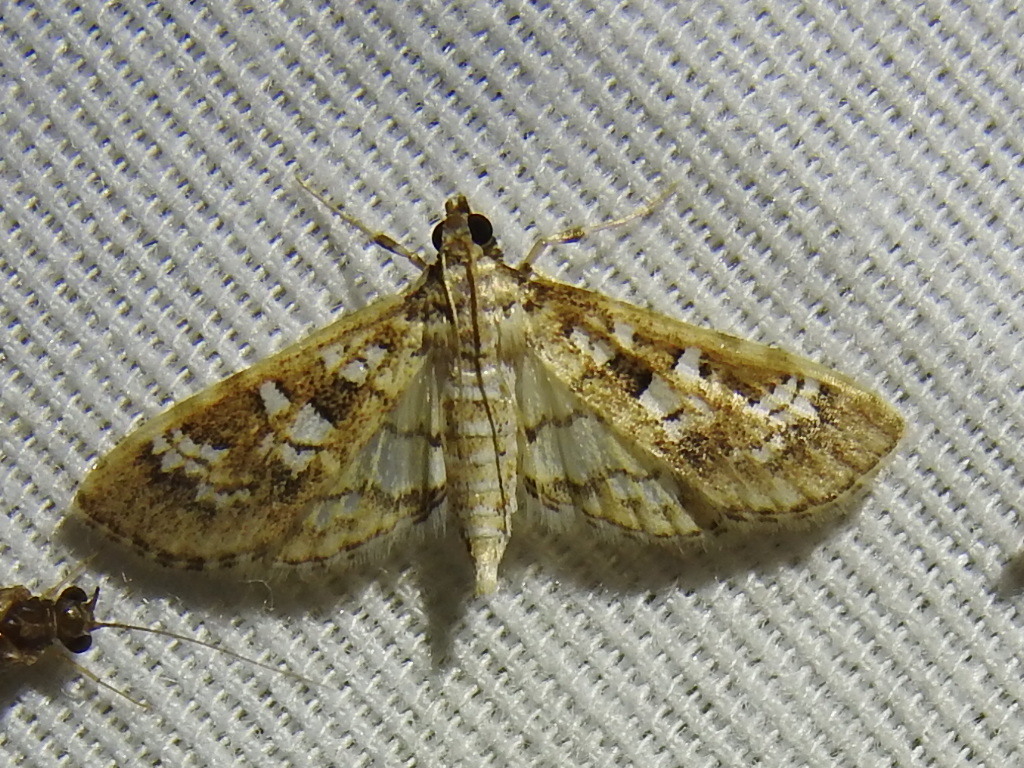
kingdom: Animalia
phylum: Arthropoda
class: Insecta
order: Lepidoptera
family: Crambidae
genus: Samea
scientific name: Samea multiplicalis
